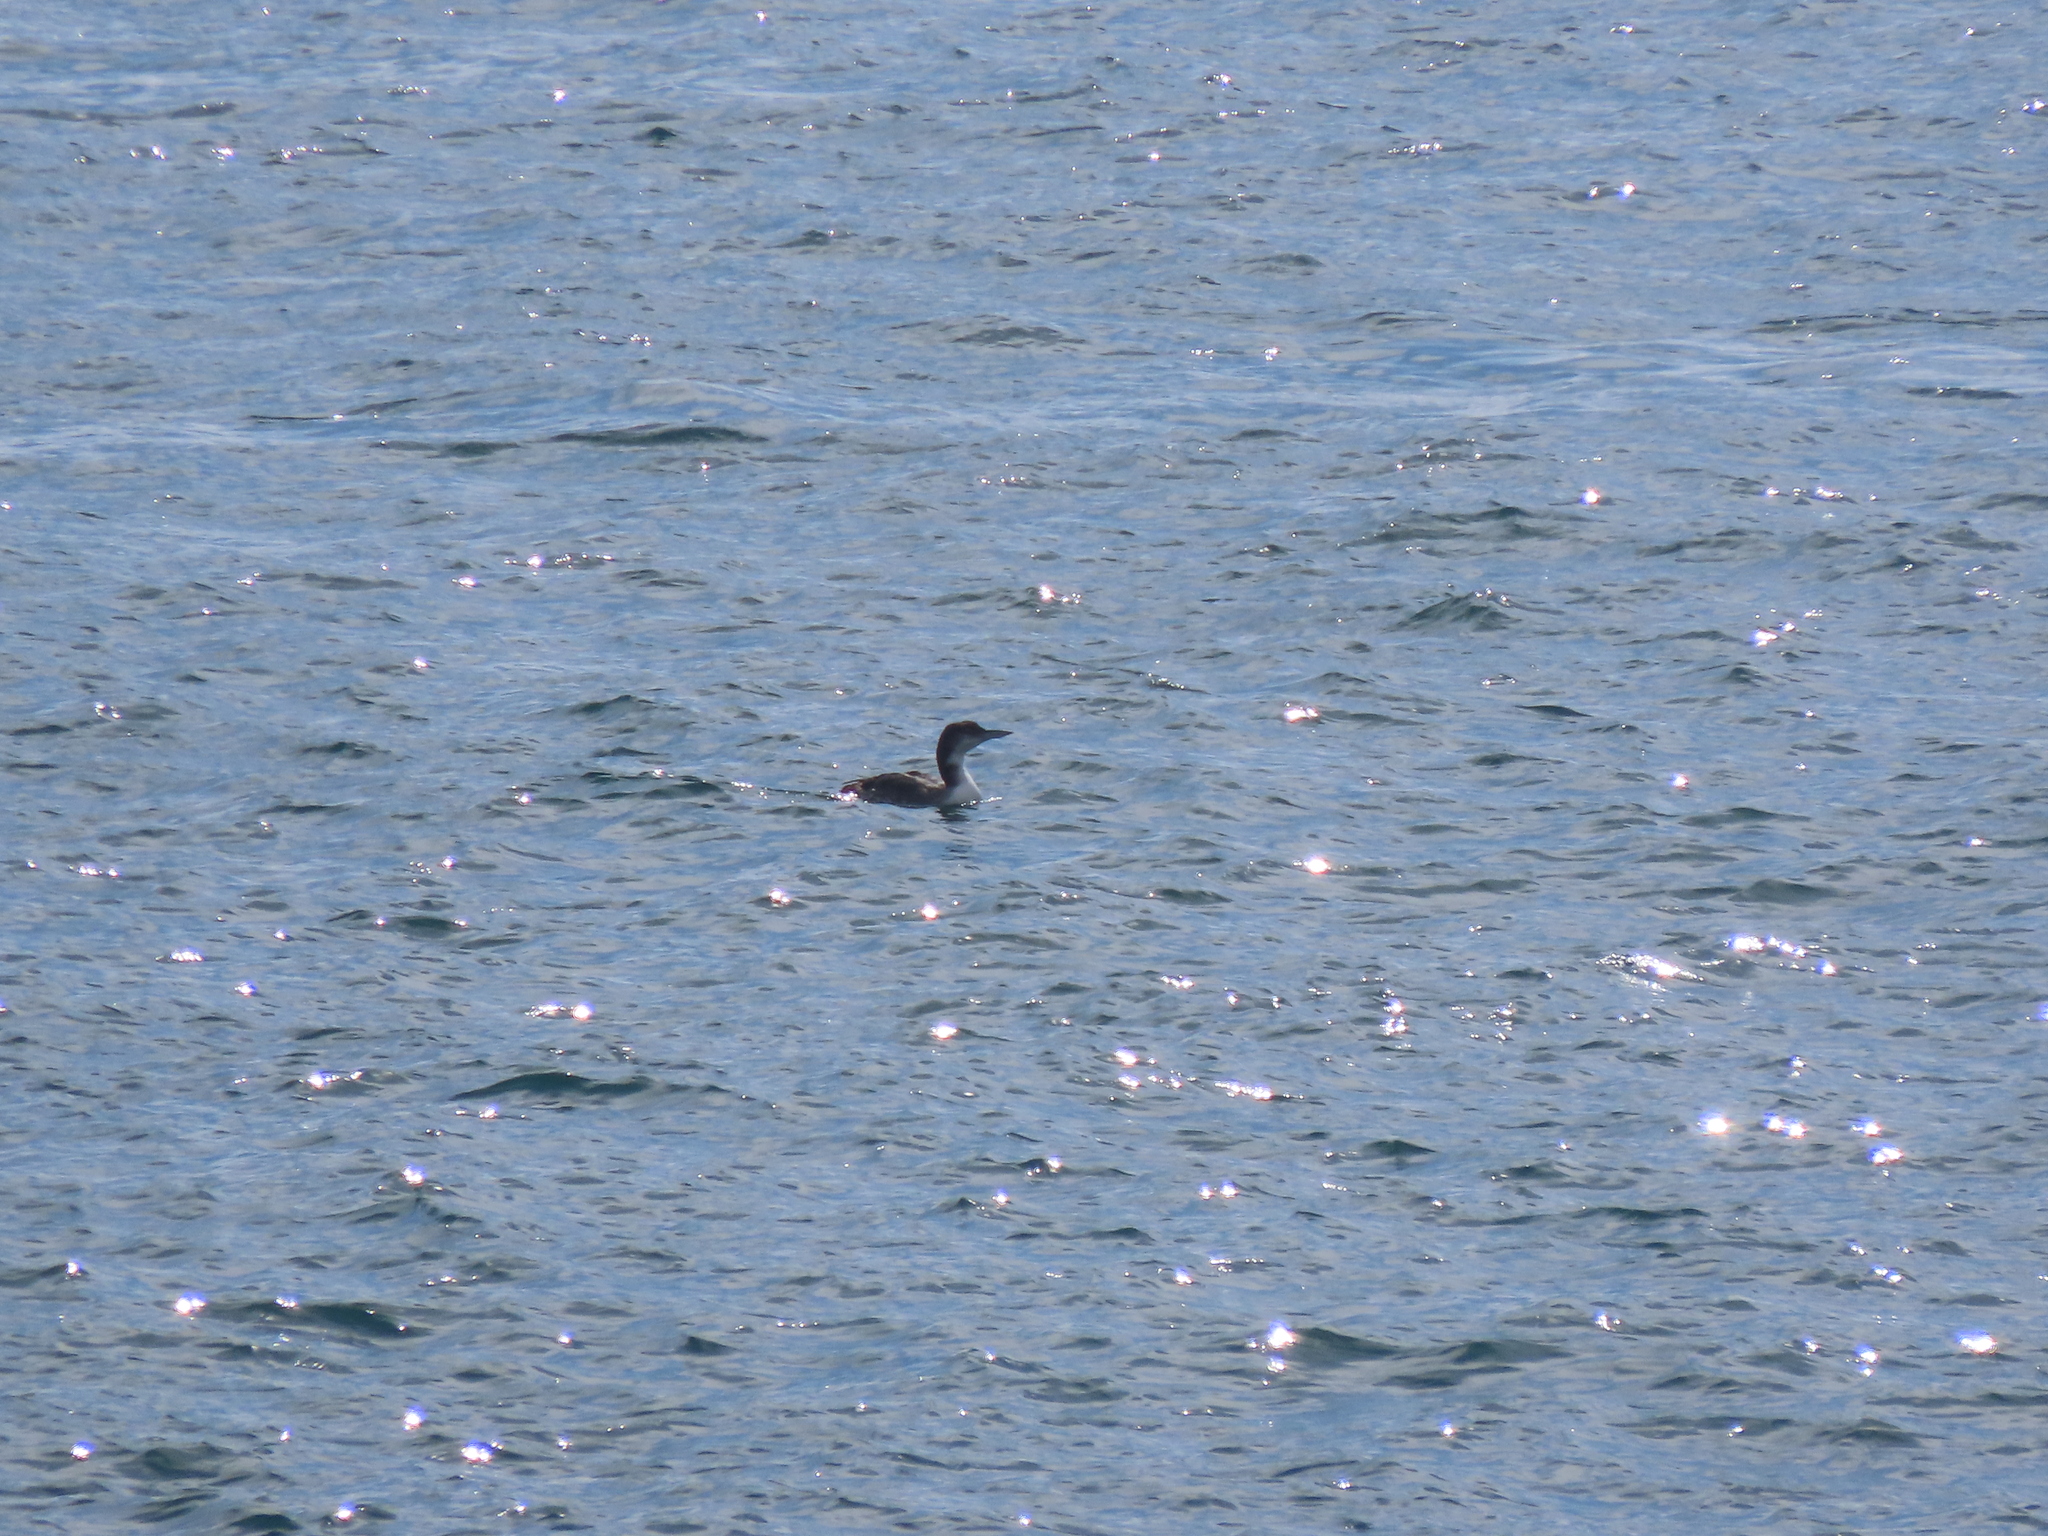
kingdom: Animalia
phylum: Chordata
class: Aves
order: Gaviiformes
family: Gaviidae
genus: Gavia
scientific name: Gavia immer
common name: Common loon
